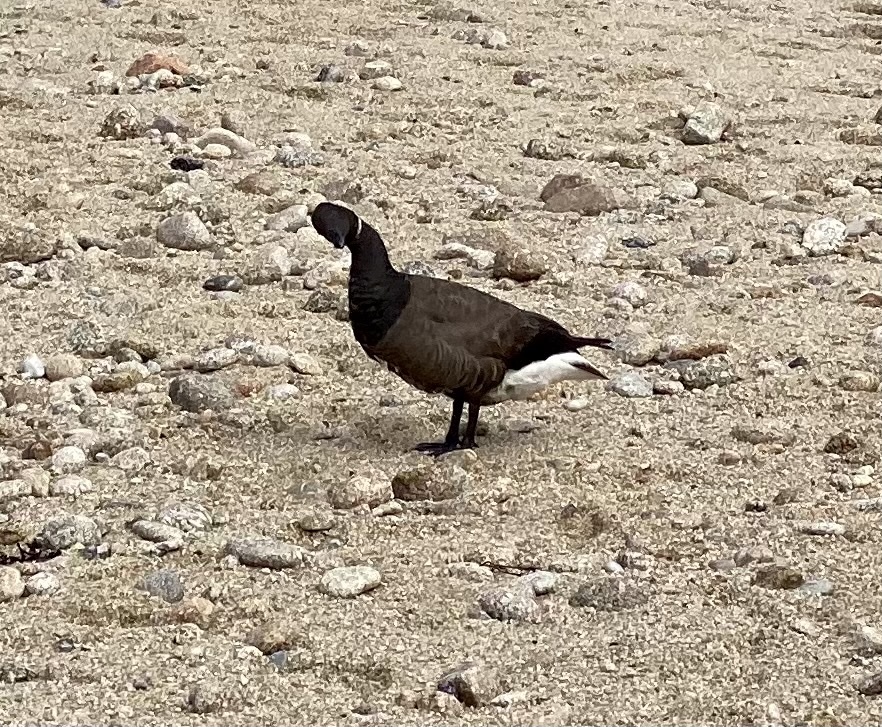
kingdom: Animalia
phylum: Chordata
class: Aves
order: Anseriformes
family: Anatidae
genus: Branta
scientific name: Branta bernicla
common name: Brant goose
